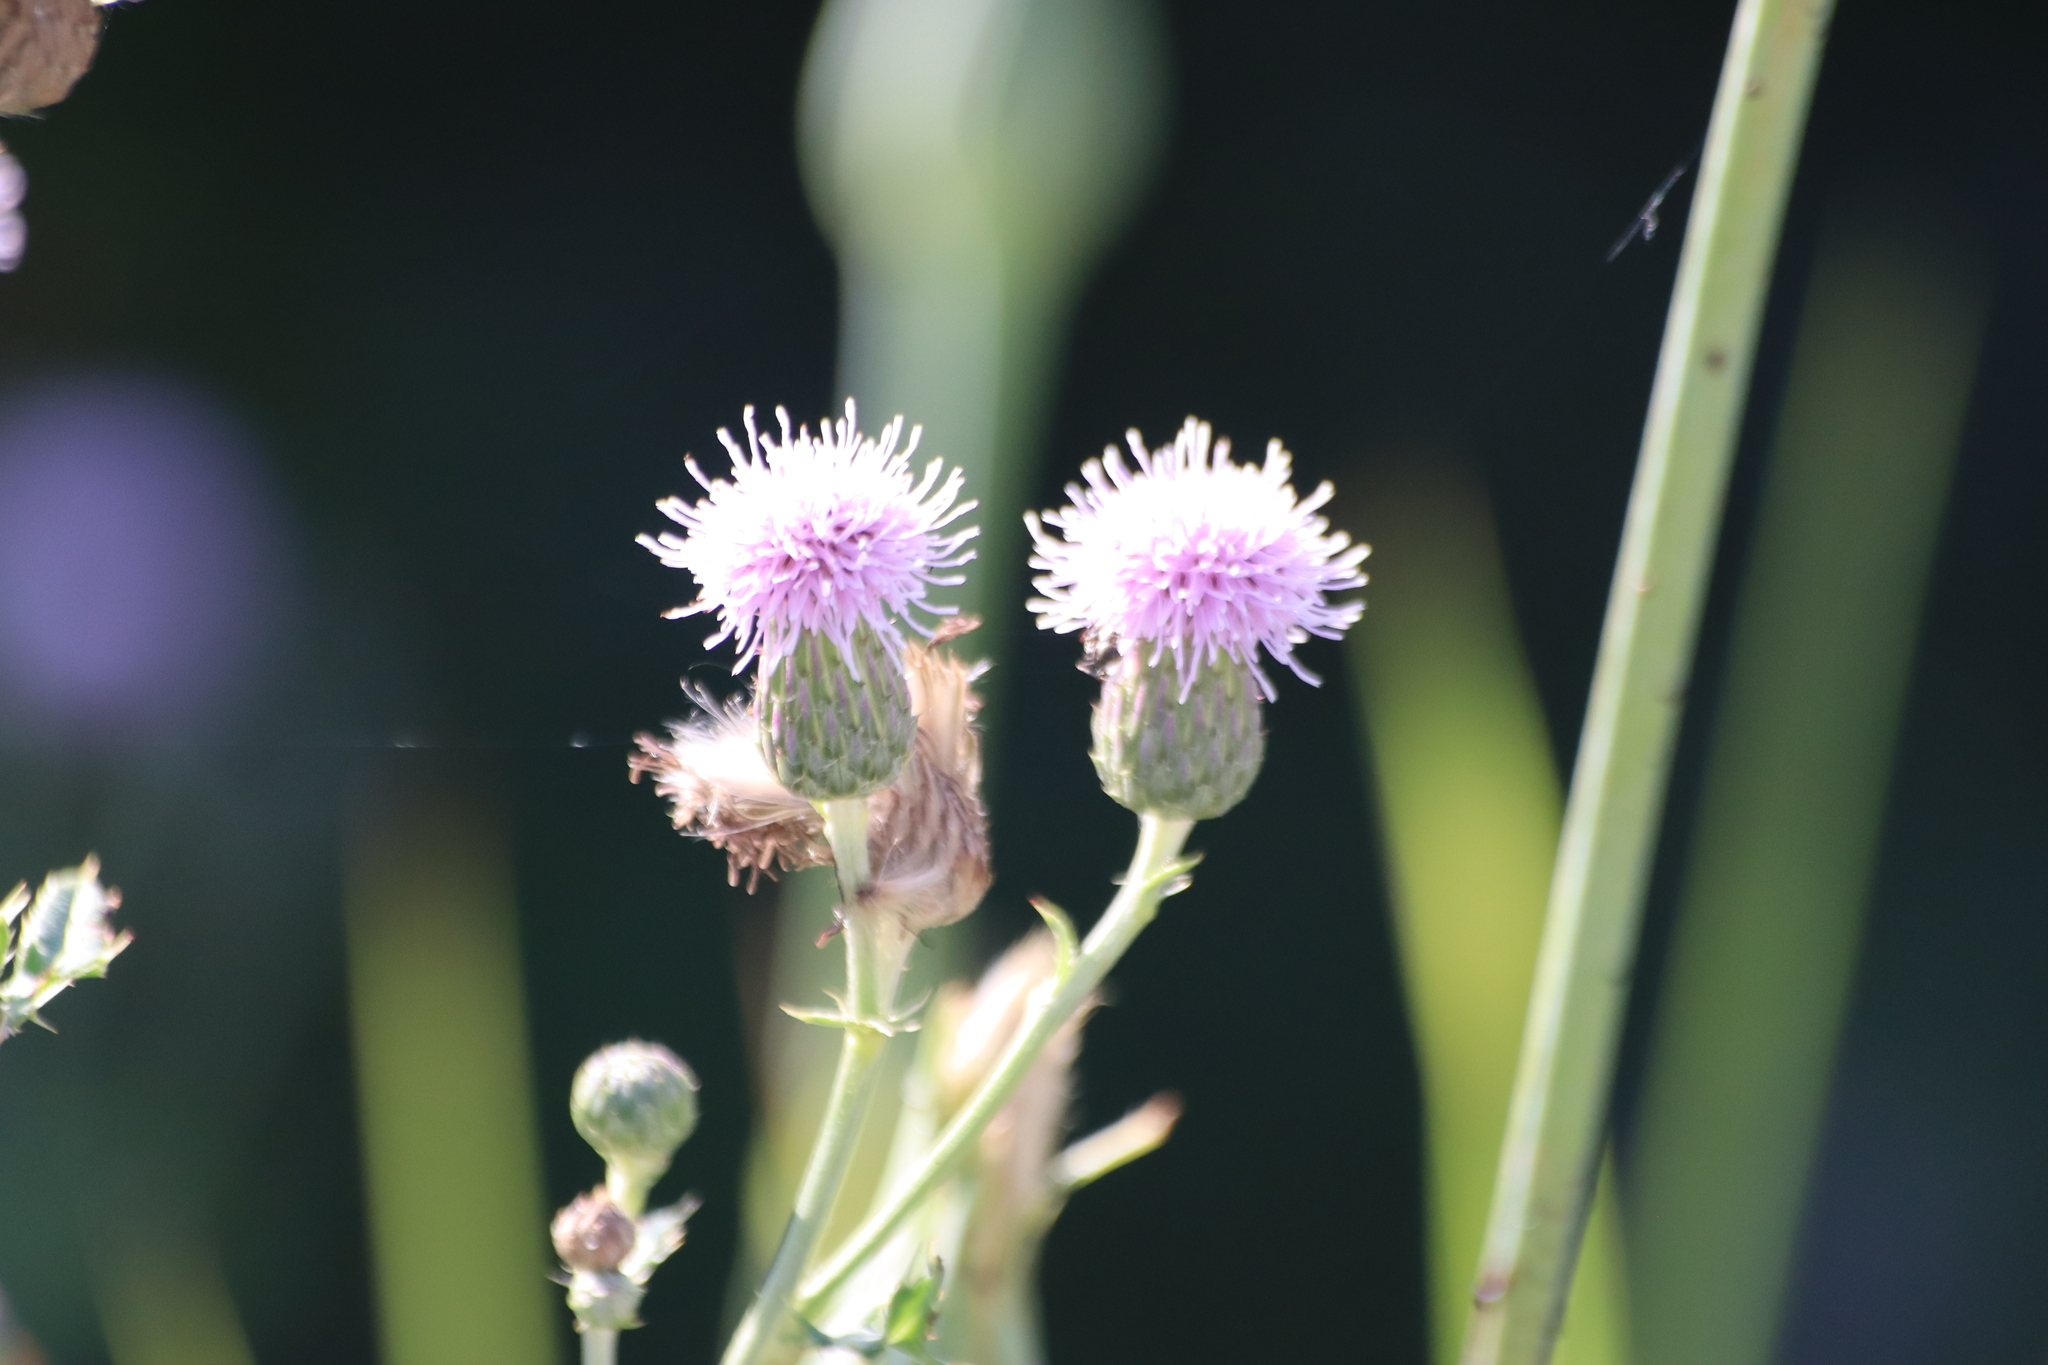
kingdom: Plantae
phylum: Tracheophyta
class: Magnoliopsida
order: Asterales
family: Asteraceae
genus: Cirsium
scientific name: Cirsium arvense
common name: Creeping thistle
